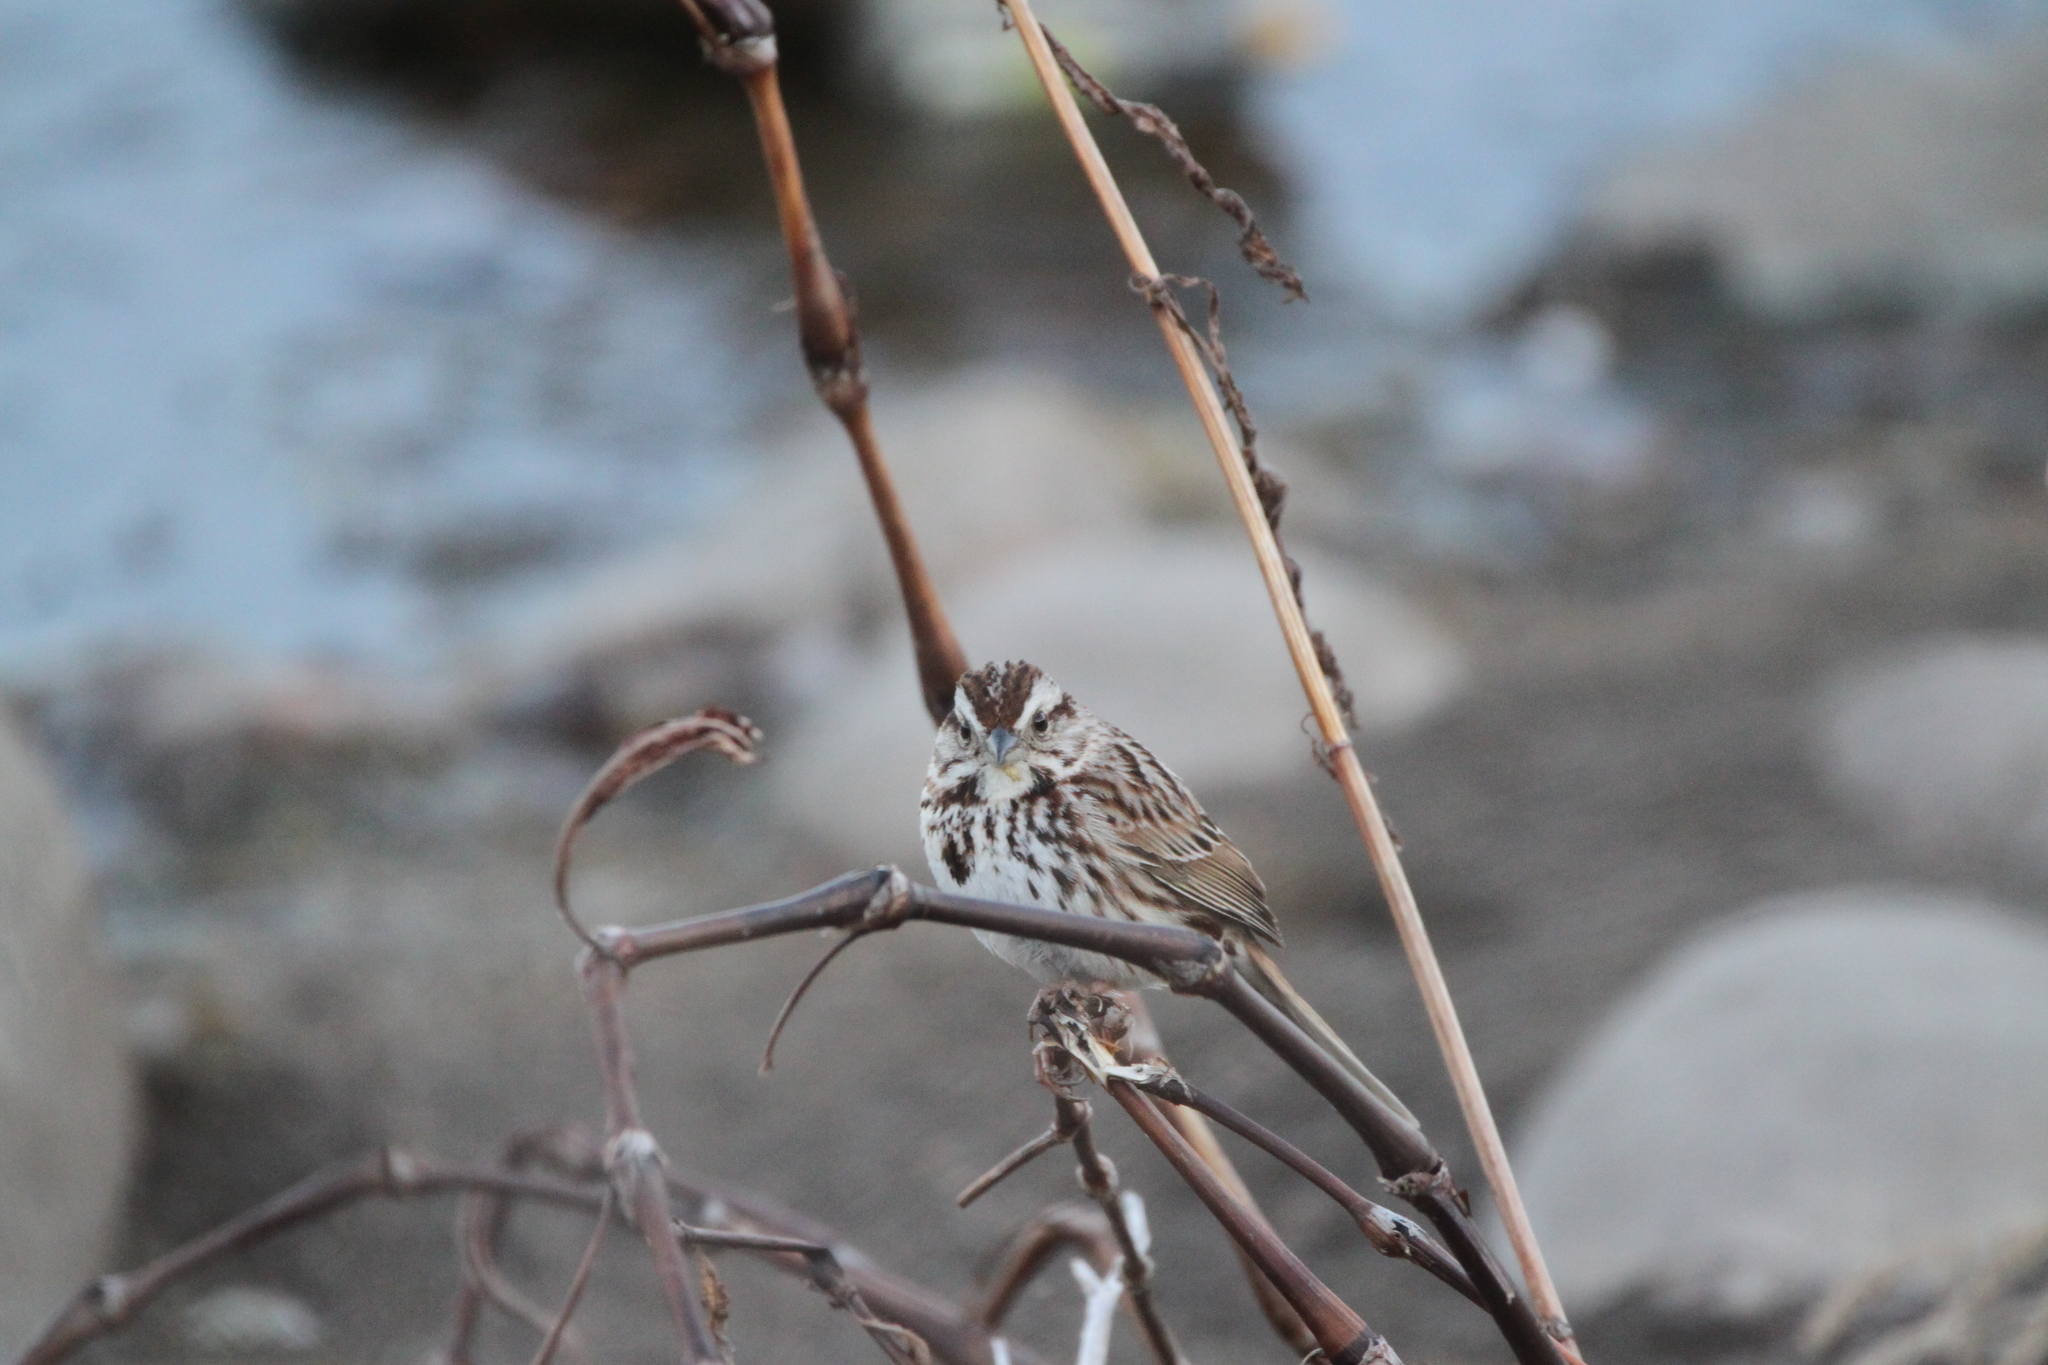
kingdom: Animalia
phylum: Chordata
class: Aves
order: Passeriformes
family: Passerellidae
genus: Melospiza
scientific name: Melospiza melodia
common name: Song sparrow
